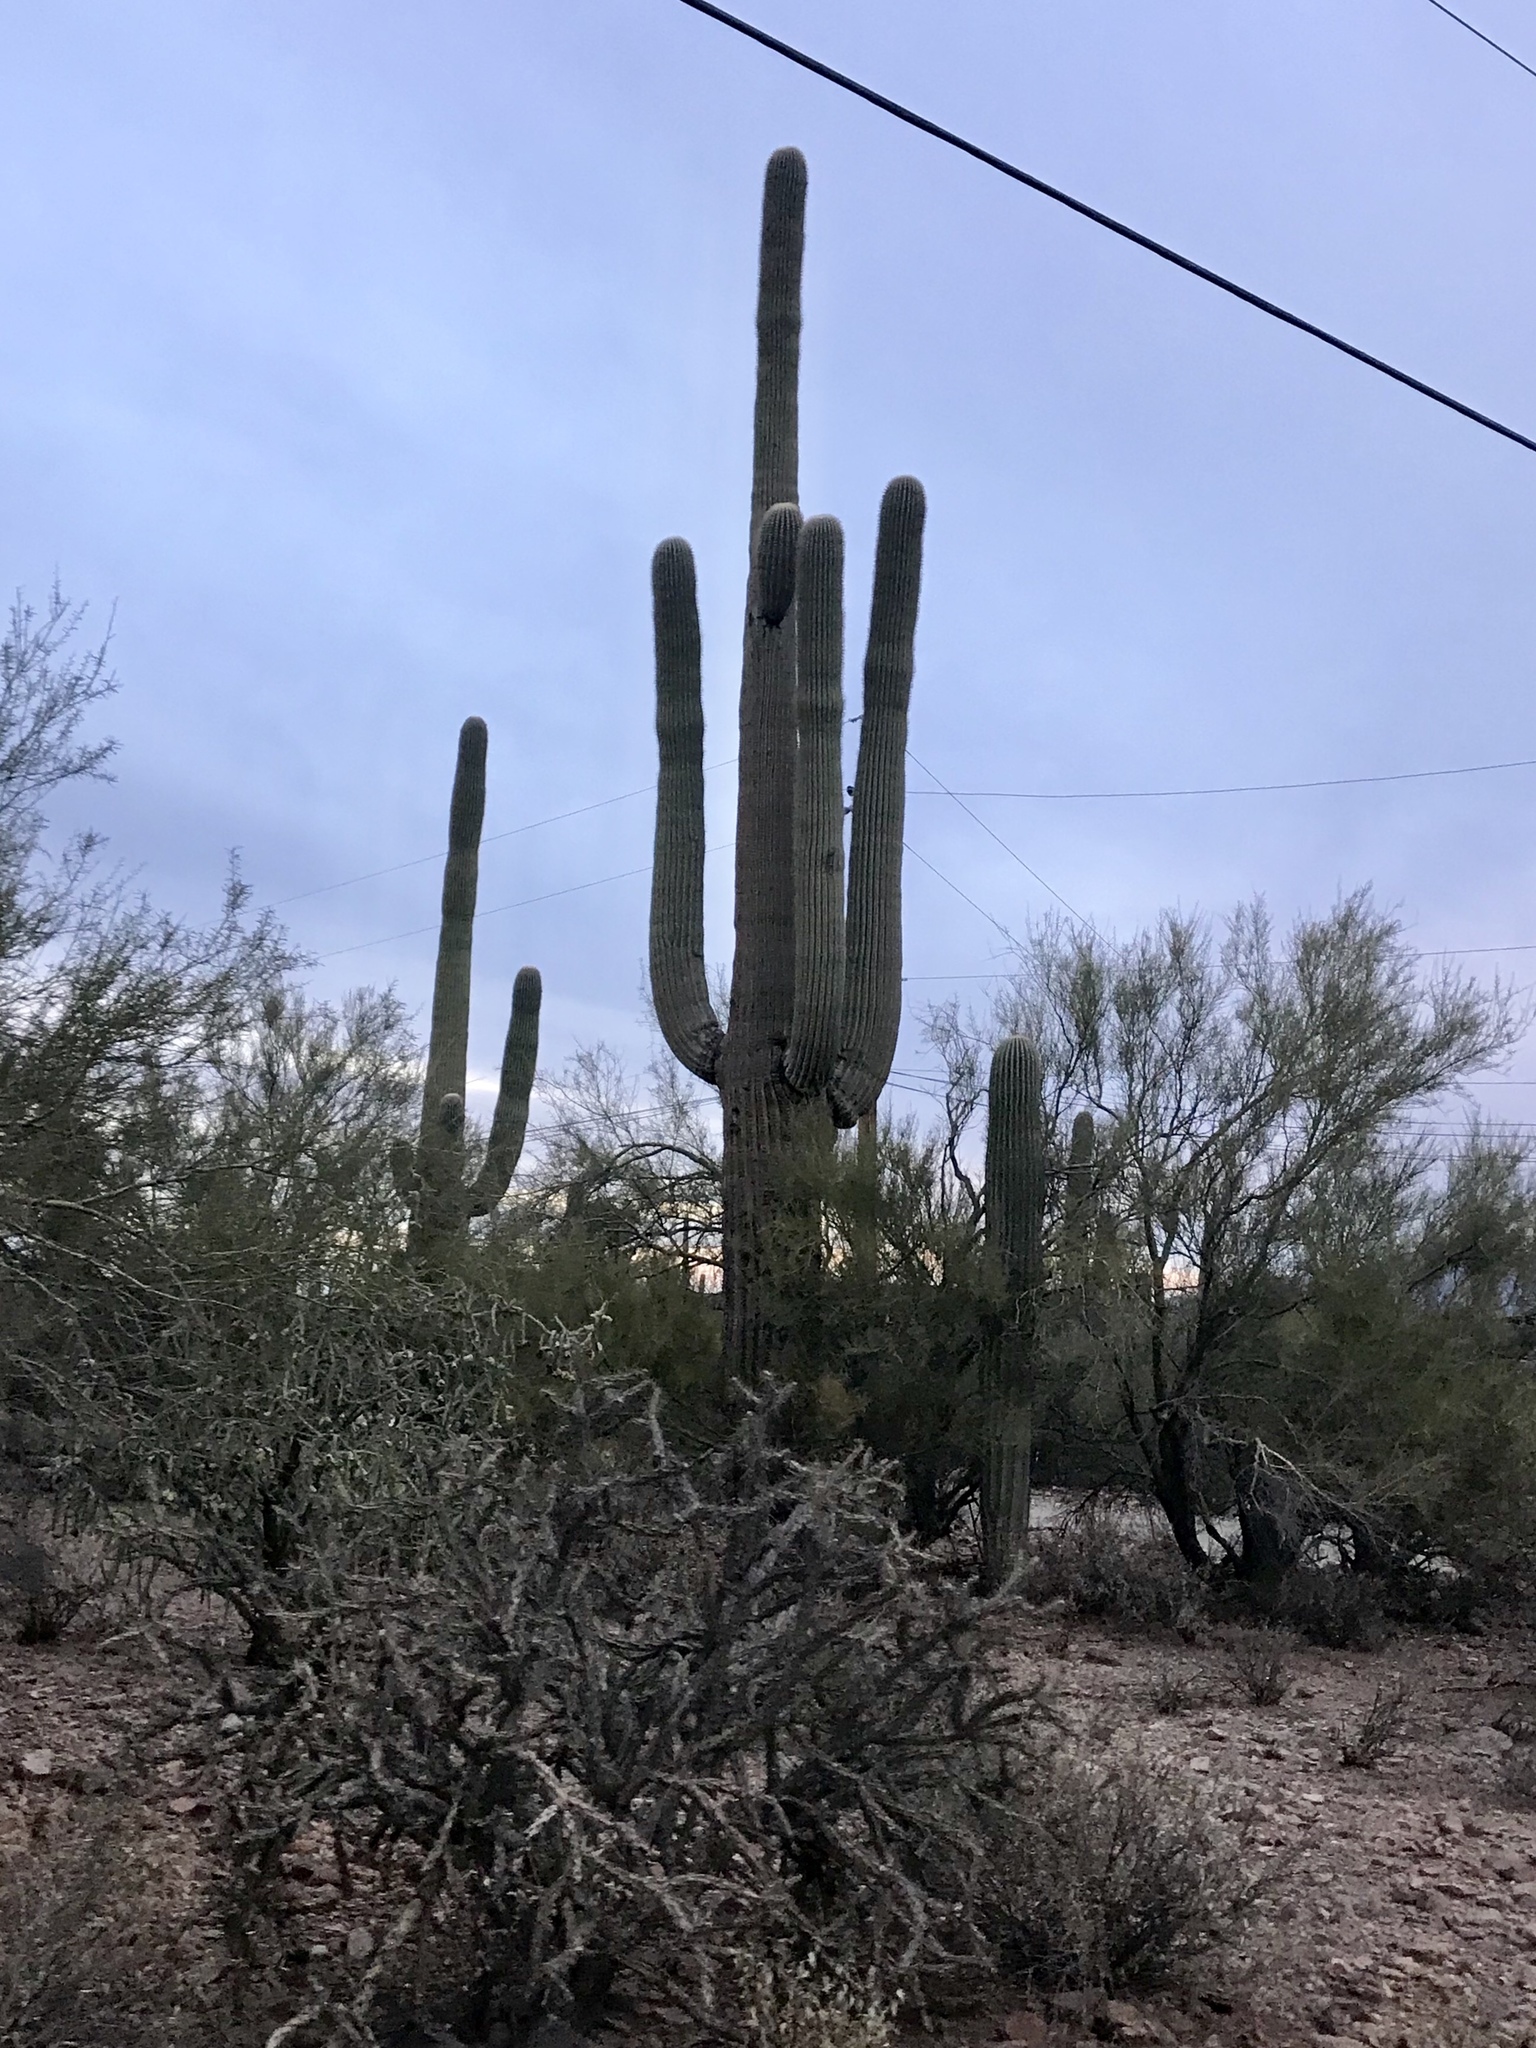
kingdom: Plantae
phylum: Tracheophyta
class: Magnoliopsida
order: Caryophyllales
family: Cactaceae
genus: Carnegiea
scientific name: Carnegiea gigantea
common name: Saguaro
